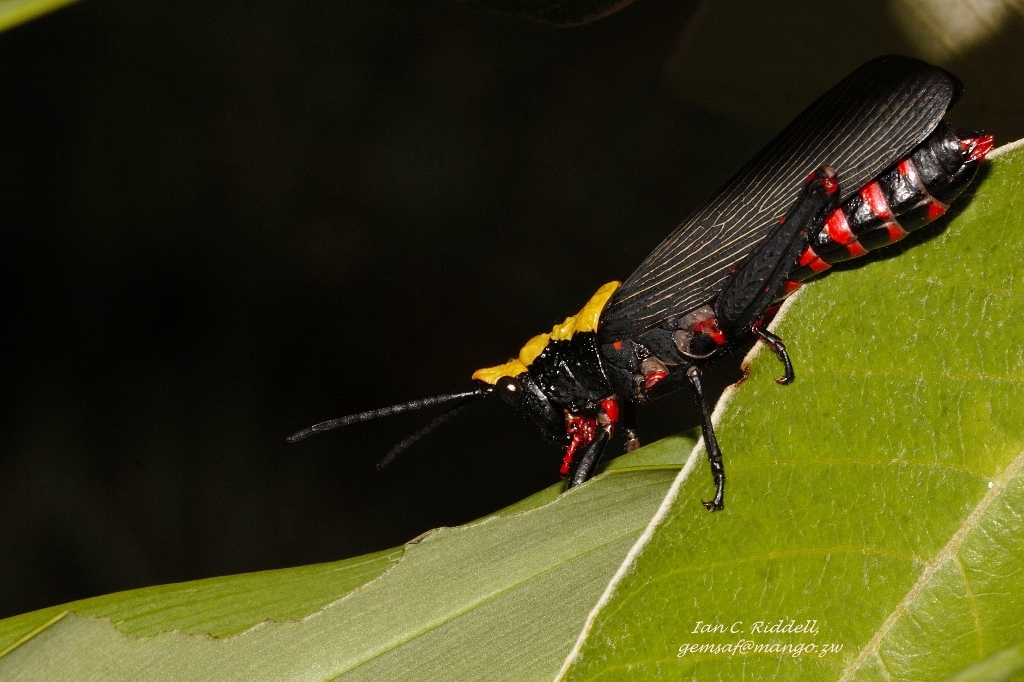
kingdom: Animalia
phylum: Arthropoda
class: Insecta
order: Orthoptera
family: Pyrgomorphidae
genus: Maura
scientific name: Maura marshalli
